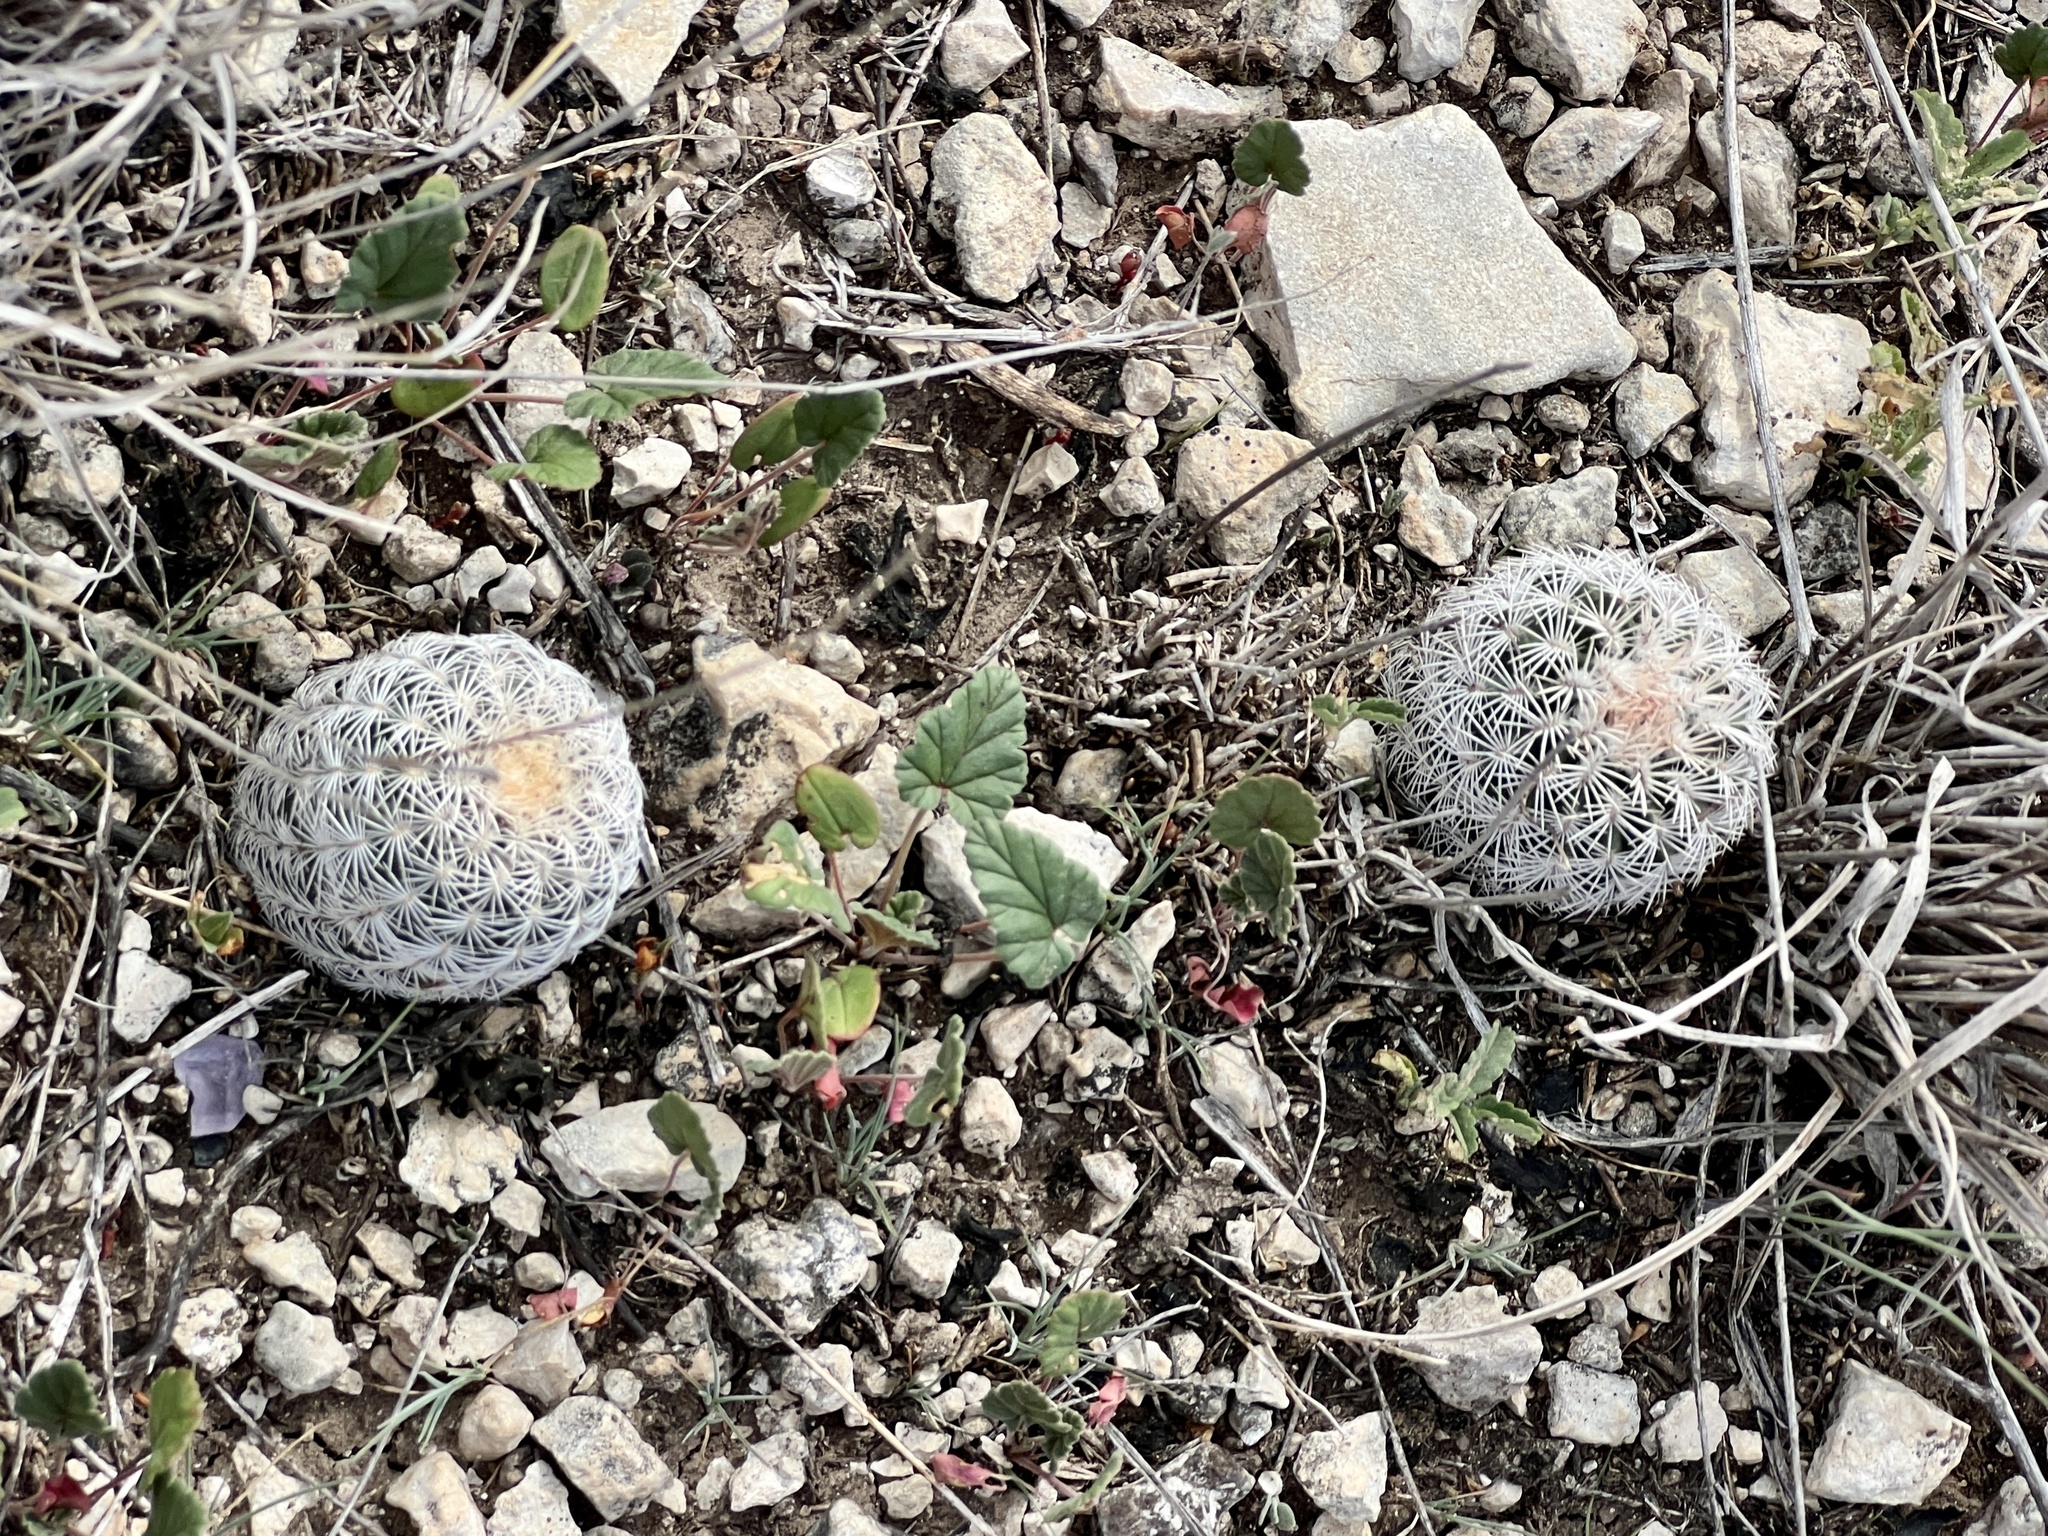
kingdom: Plantae
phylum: Tracheophyta
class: Magnoliopsida
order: Caryophyllales
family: Cactaceae
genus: Echinocereus
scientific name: Echinocereus reichenbachii
